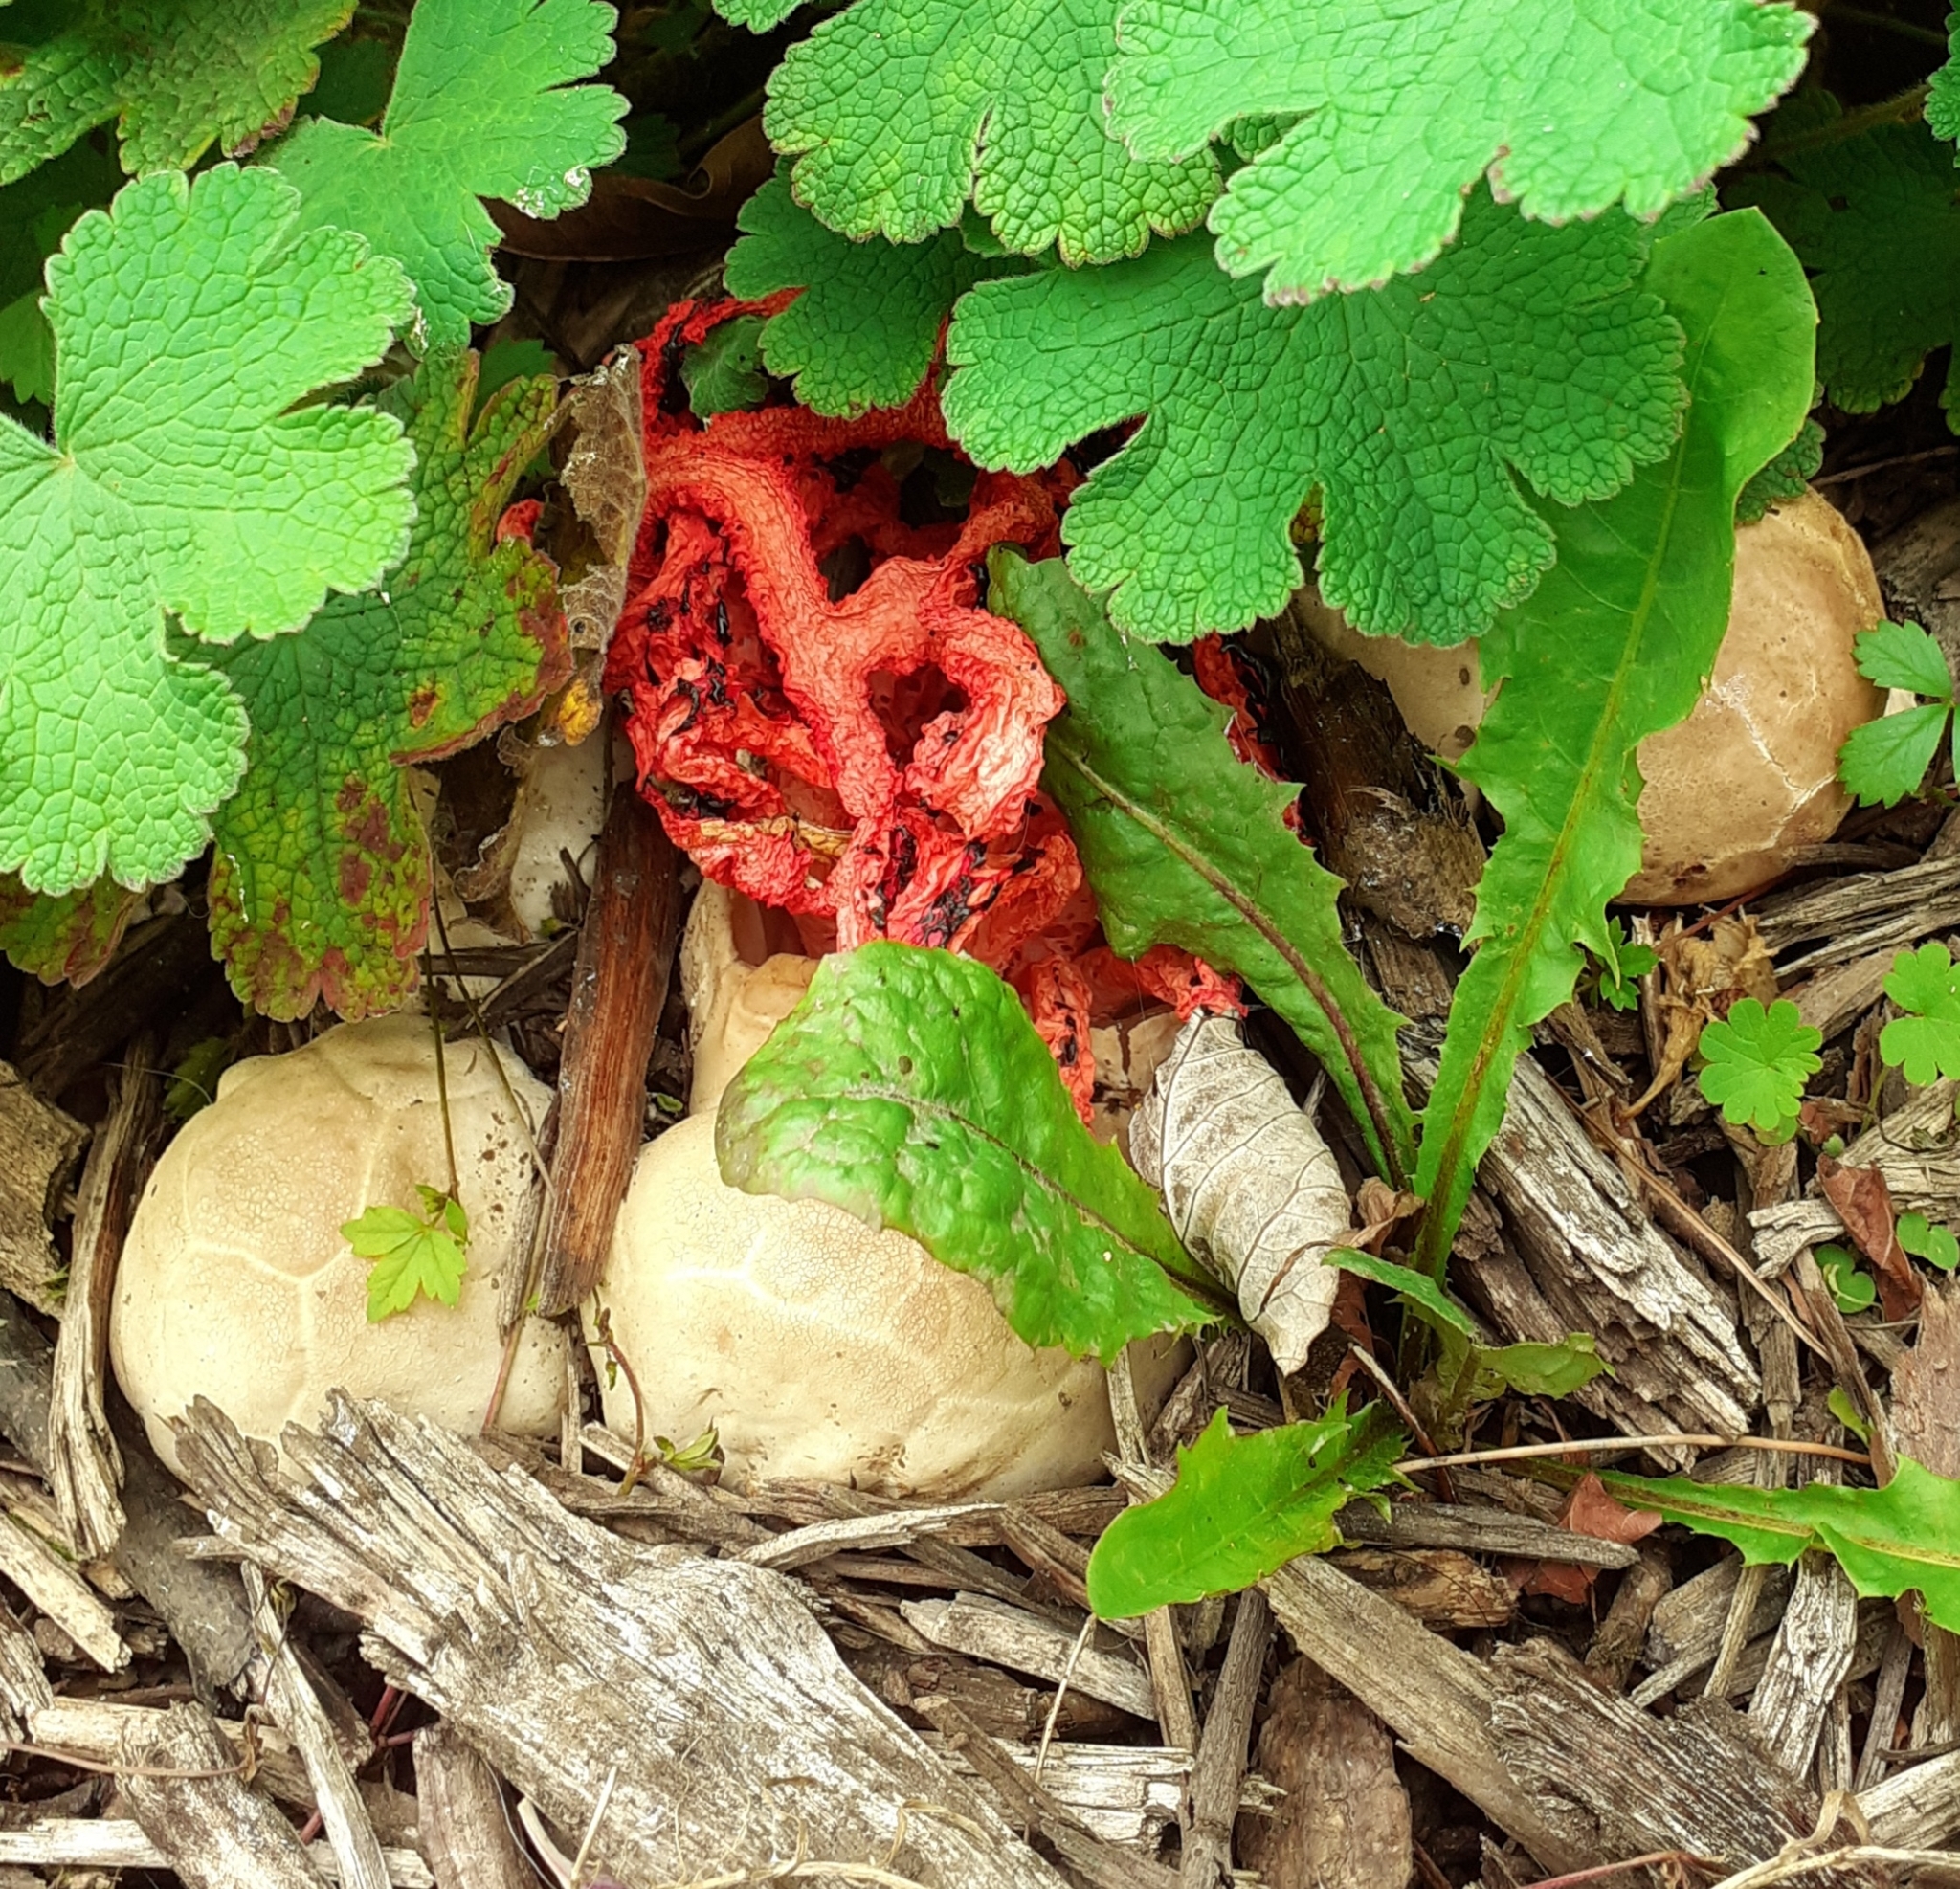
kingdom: Fungi
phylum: Basidiomycota
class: Agaricomycetes
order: Phallales
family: Phallaceae
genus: Clathrus
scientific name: Clathrus ruber
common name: Red cage
